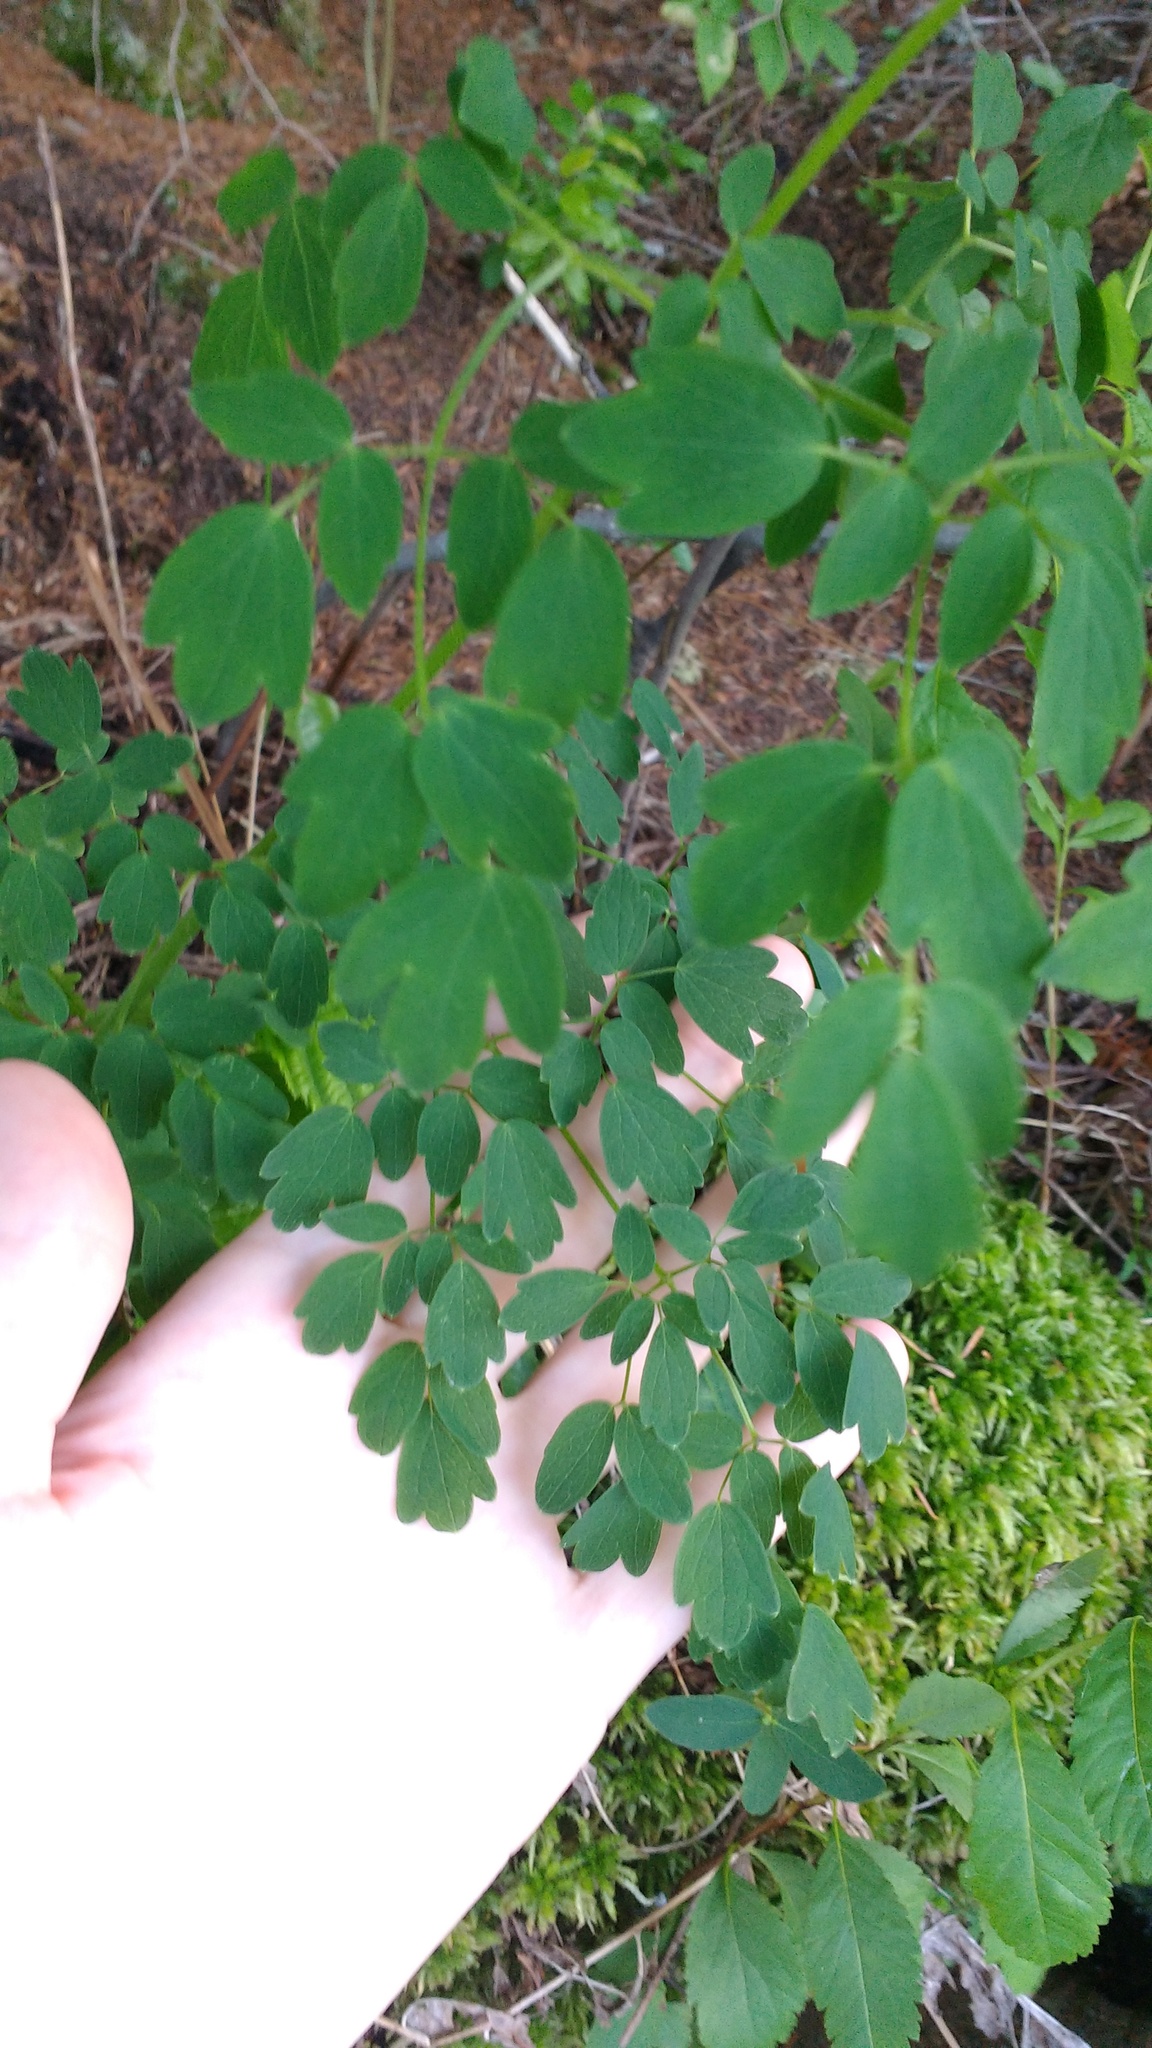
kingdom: Plantae
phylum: Tracheophyta
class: Magnoliopsida
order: Ranunculales
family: Ranunculaceae
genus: Thalictrum
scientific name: Thalictrum pubescens
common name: King-of-the-meadow
